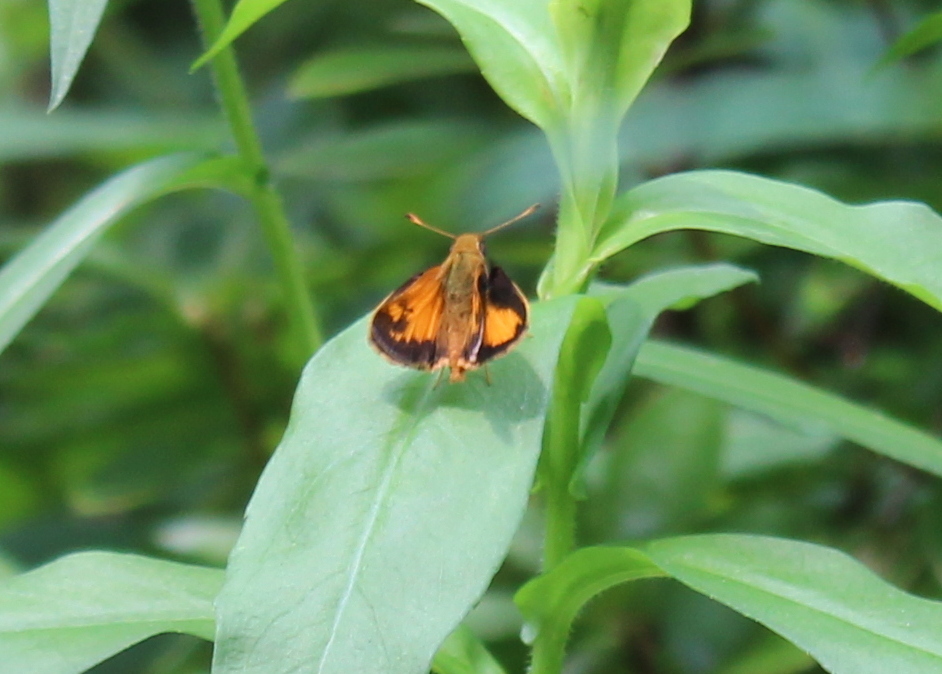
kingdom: Animalia
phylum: Arthropoda
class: Insecta
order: Lepidoptera
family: Hesperiidae
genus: Lon
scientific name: Lon zabulon
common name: Zabulon skipper
